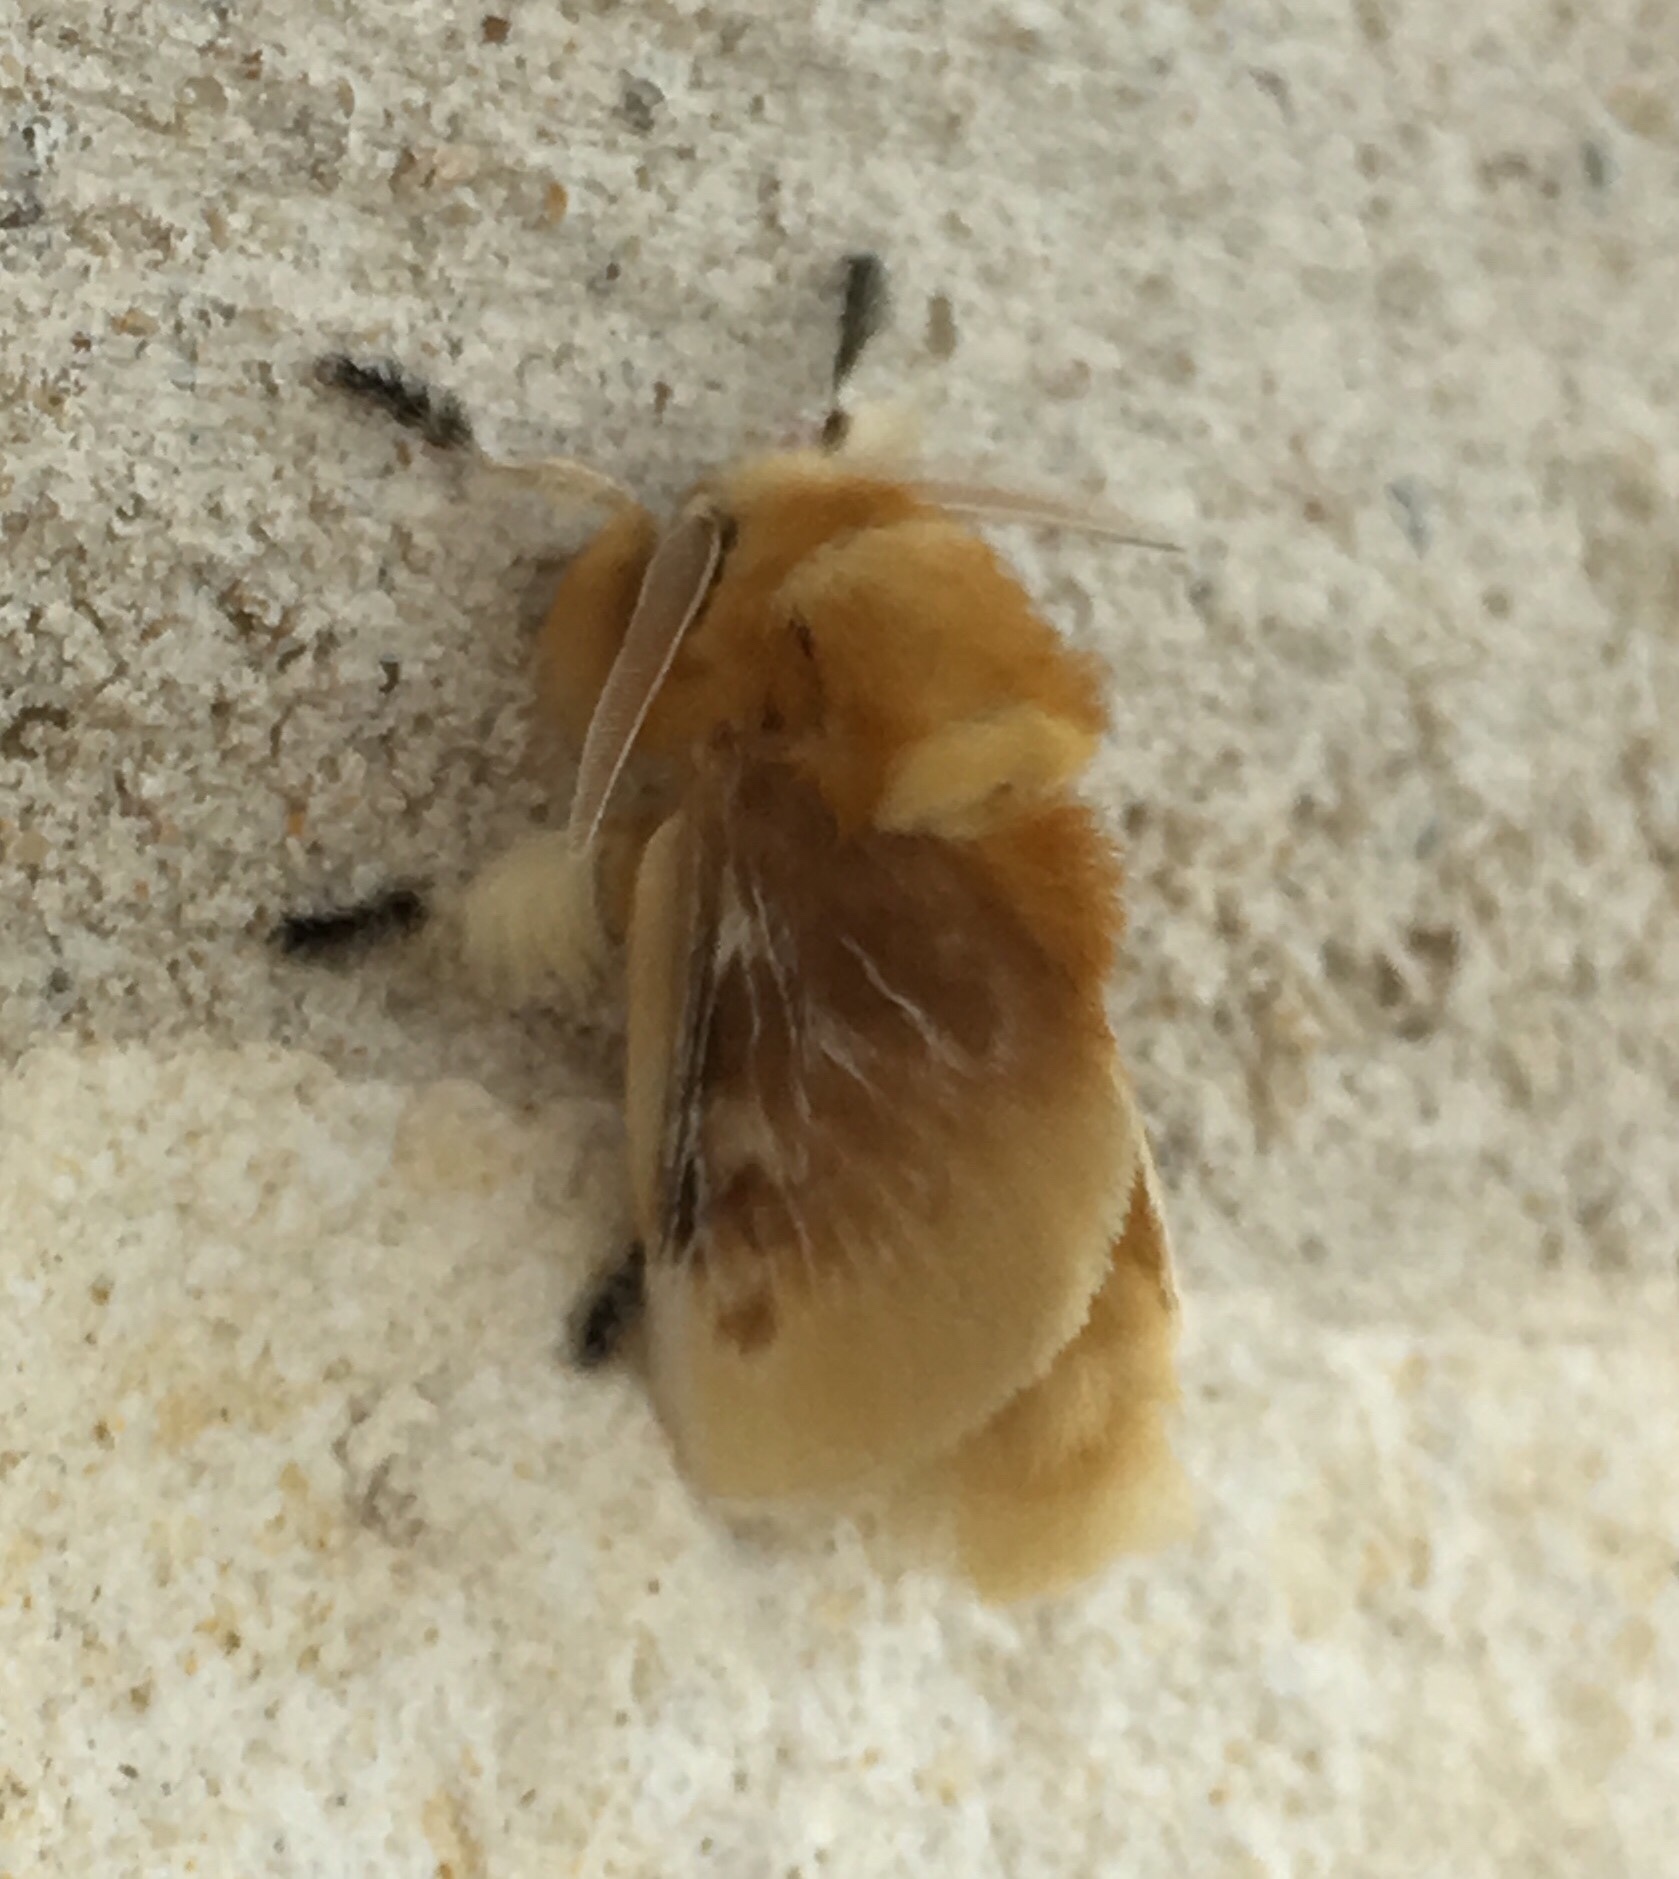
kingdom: Animalia
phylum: Arthropoda
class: Insecta
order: Lepidoptera
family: Megalopygidae
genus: Megalopyge
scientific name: Megalopyge opercularis
